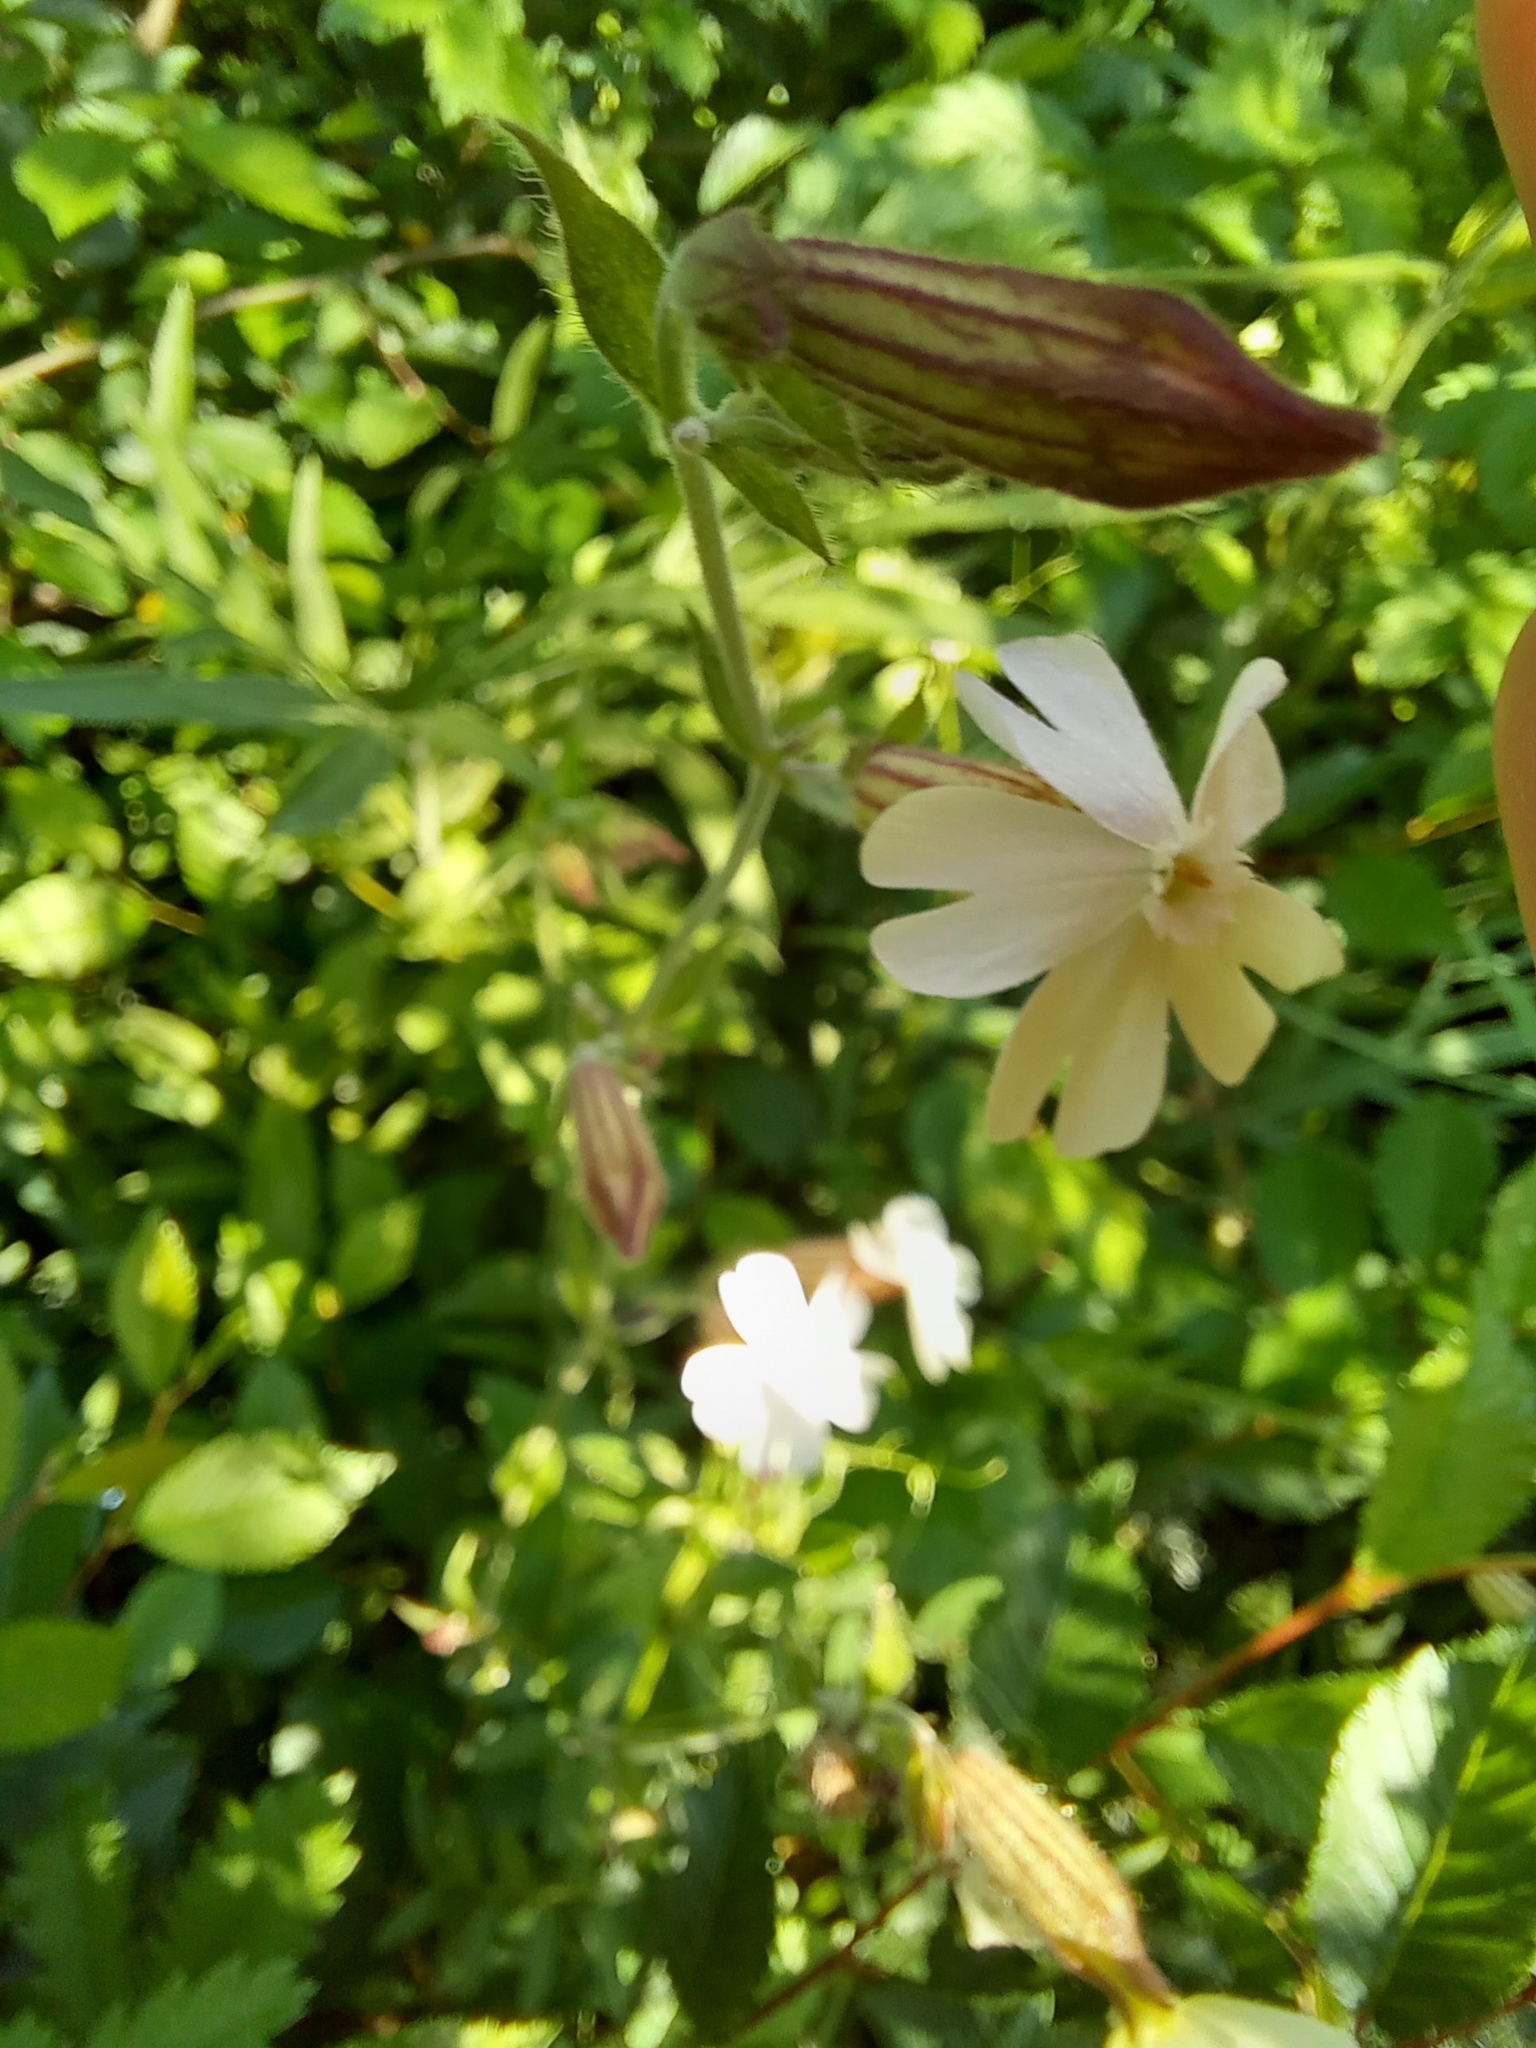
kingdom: Plantae
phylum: Tracheophyta
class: Magnoliopsida
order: Caryophyllales
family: Caryophyllaceae
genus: Silene
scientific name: Silene latifolia
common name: White campion
